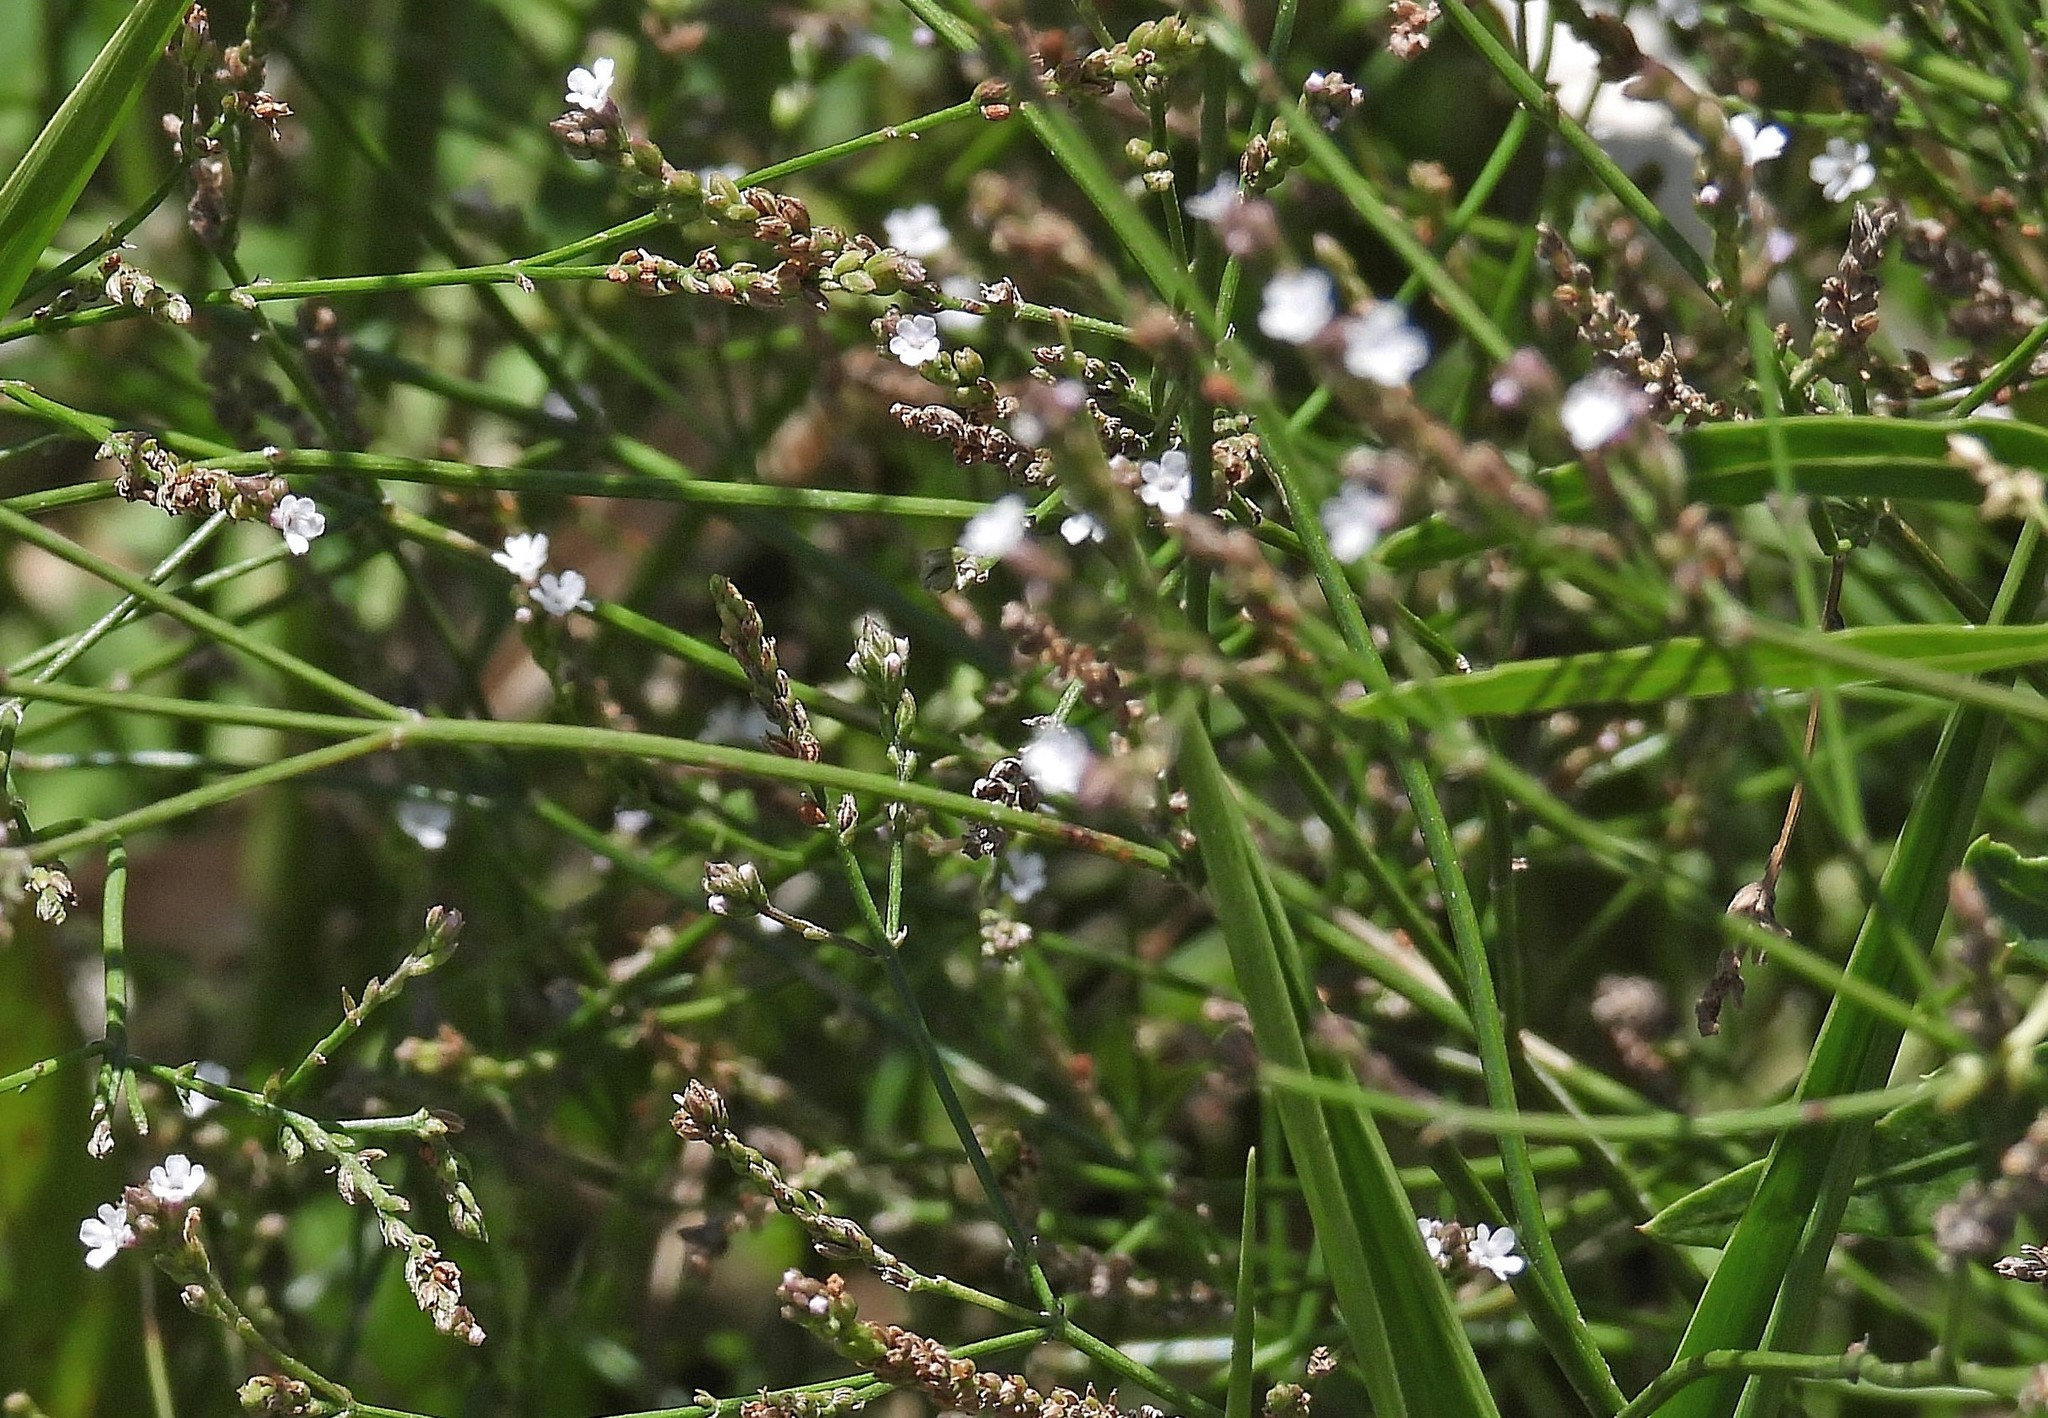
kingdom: Plantae
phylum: Tracheophyta
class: Magnoliopsida
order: Lamiales
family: Verbenaceae
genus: Verbena
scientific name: Verbena montevidensis
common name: Uruguayan vervain
